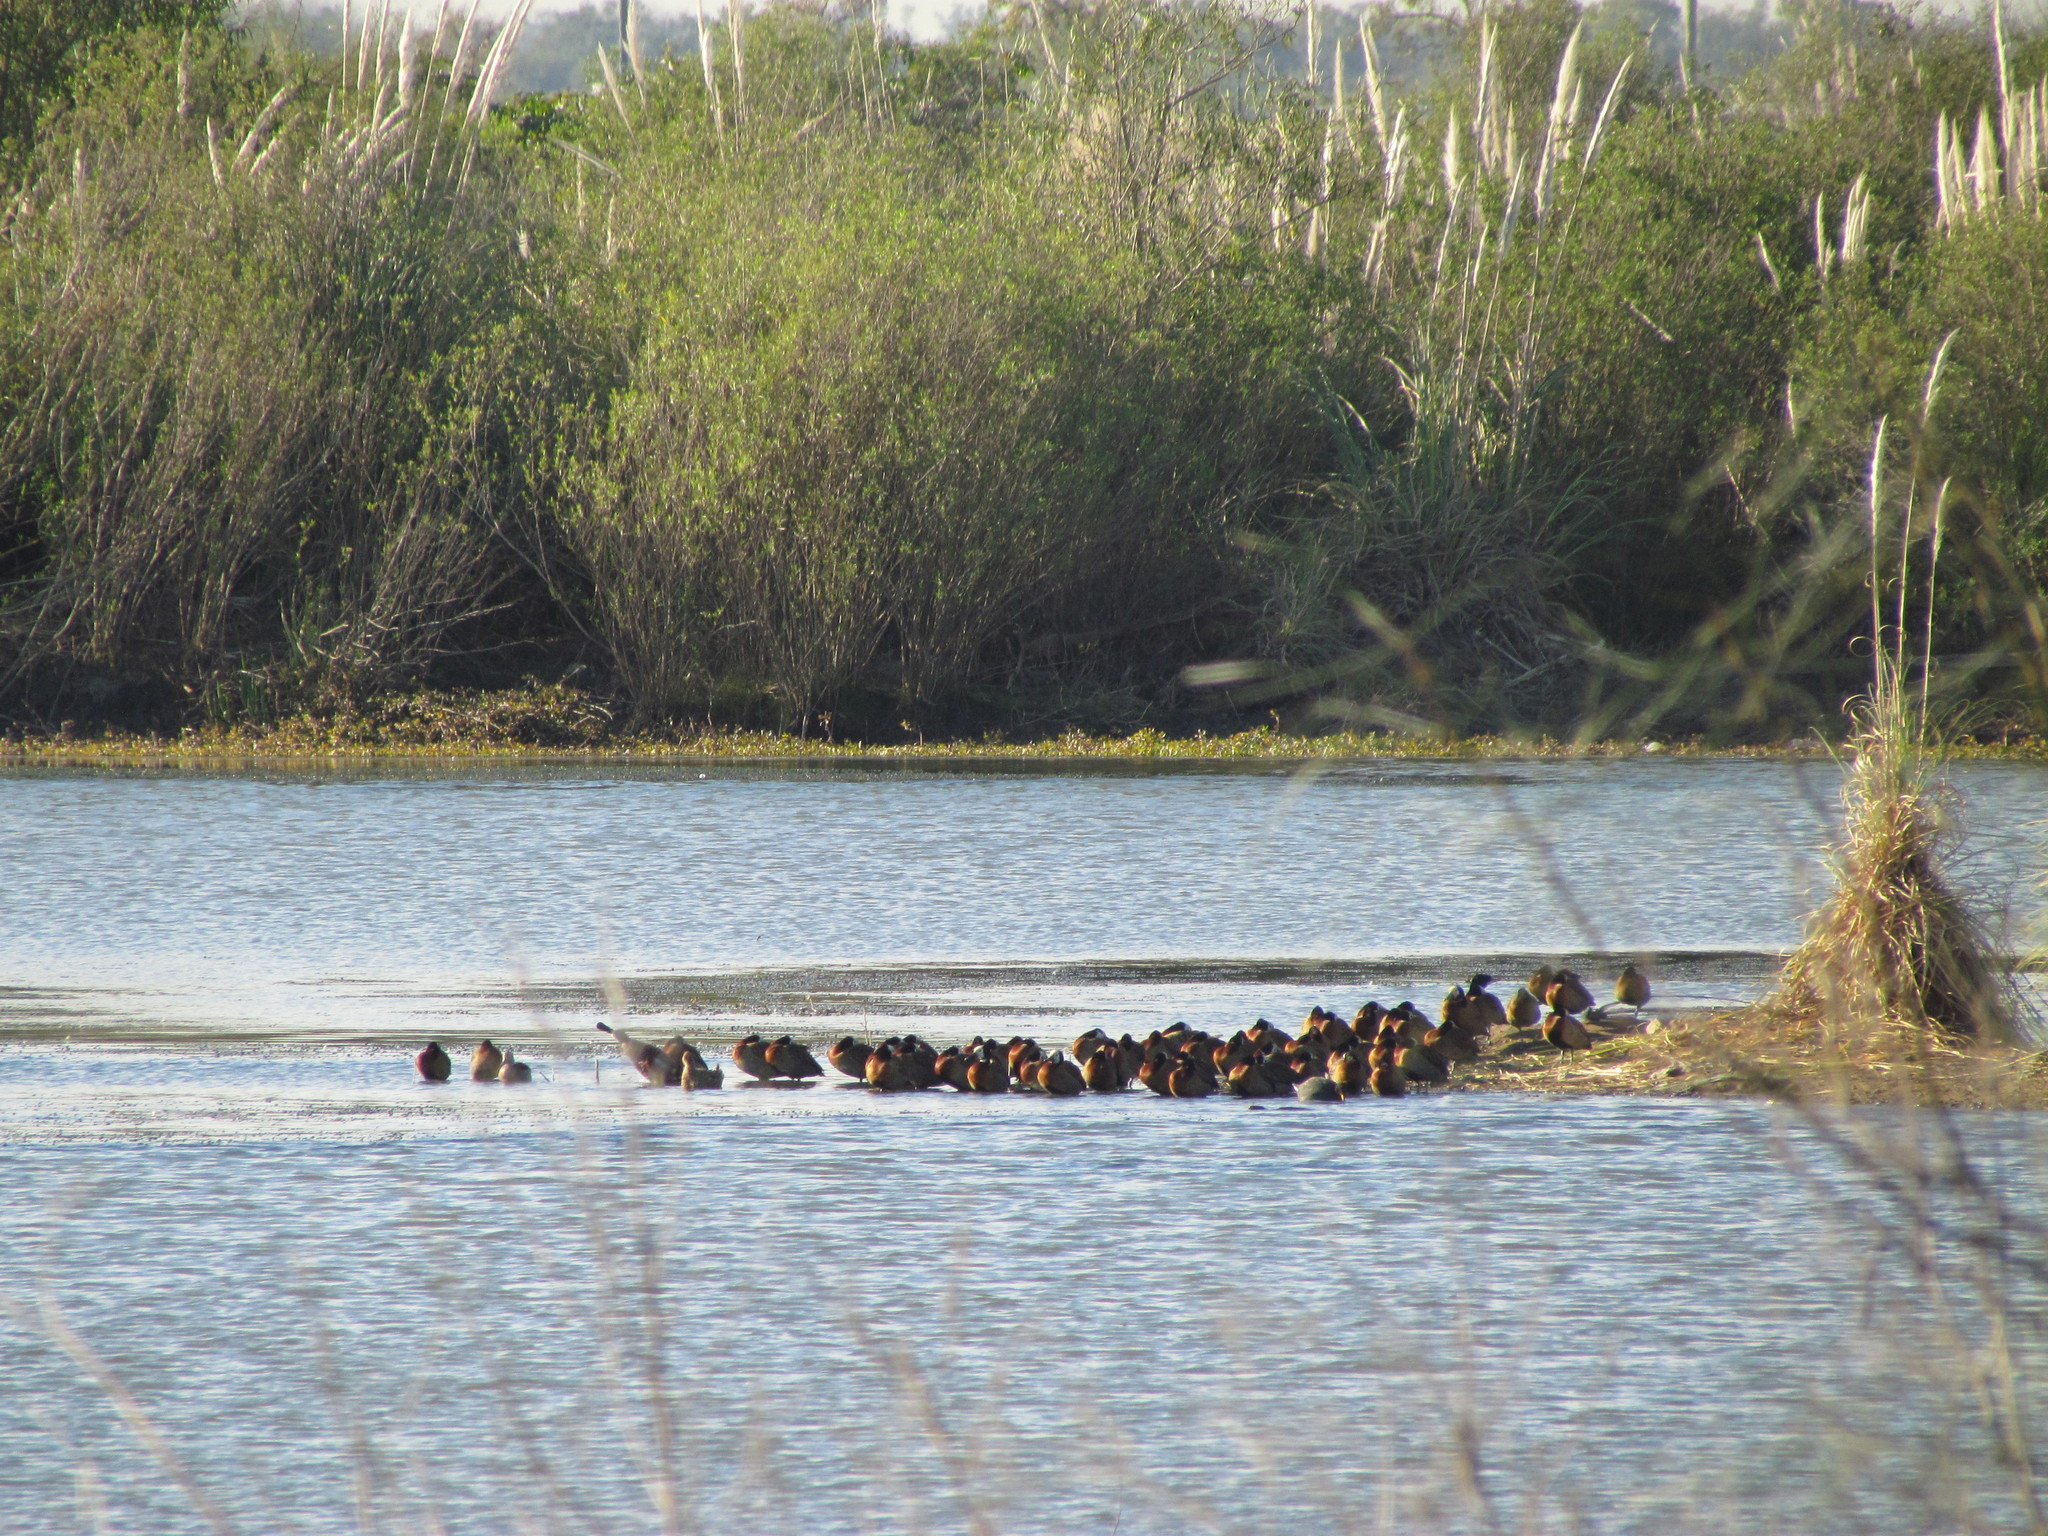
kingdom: Animalia
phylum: Chordata
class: Aves
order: Anseriformes
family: Anatidae
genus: Dendrocygna
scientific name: Dendrocygna viduata
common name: White-faced whistling duck
